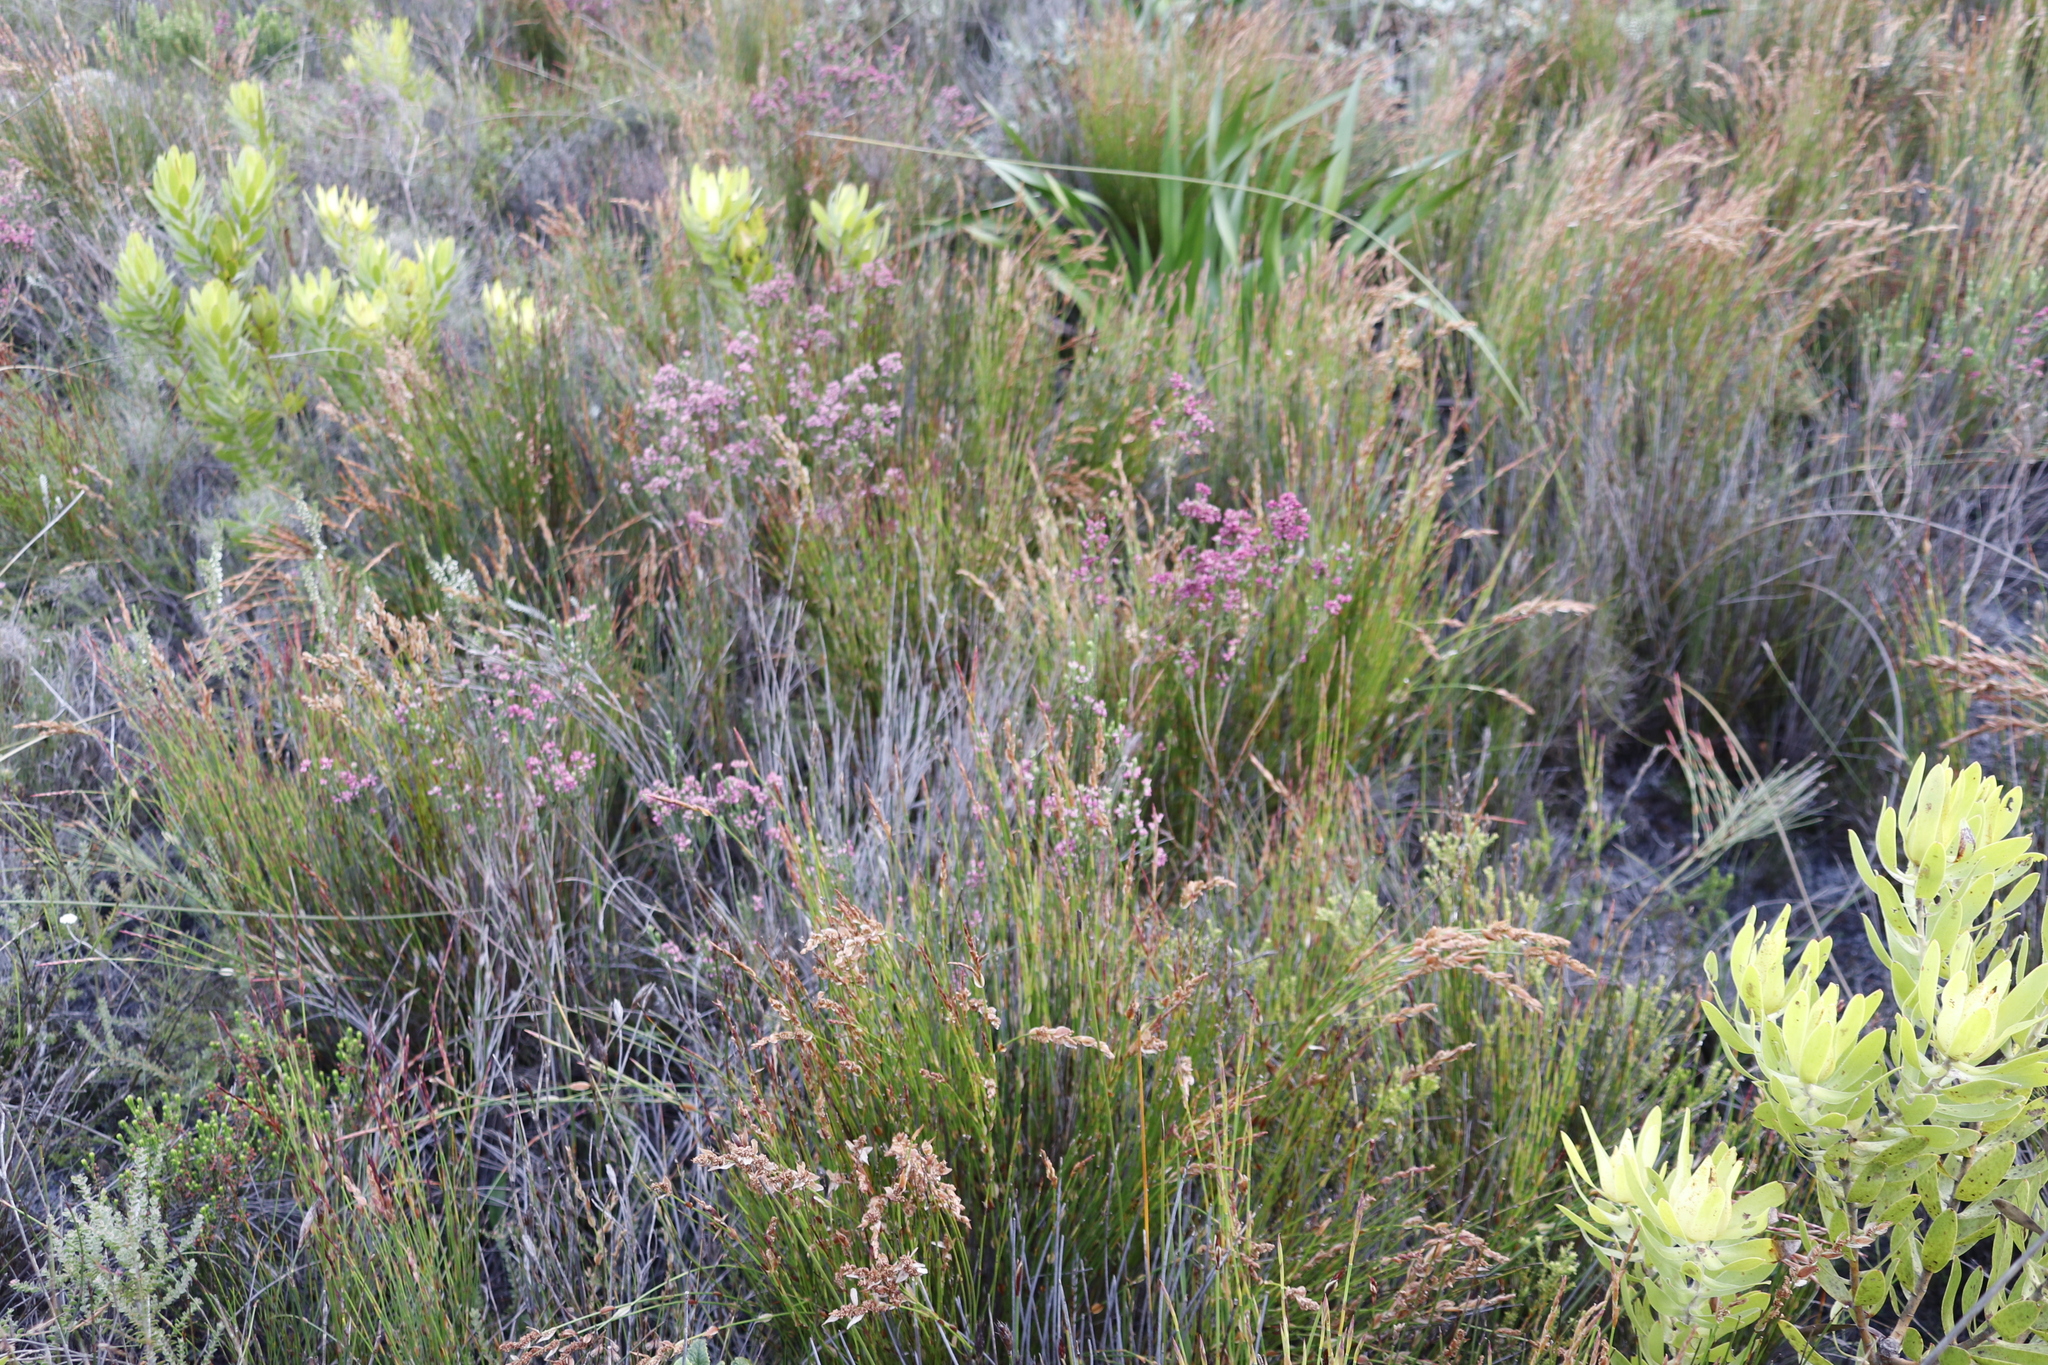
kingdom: Plantae
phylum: Tracheophyta
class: Magnoliopsida
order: Ericales
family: Ericaceae
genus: Erica
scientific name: Erica corifolia
